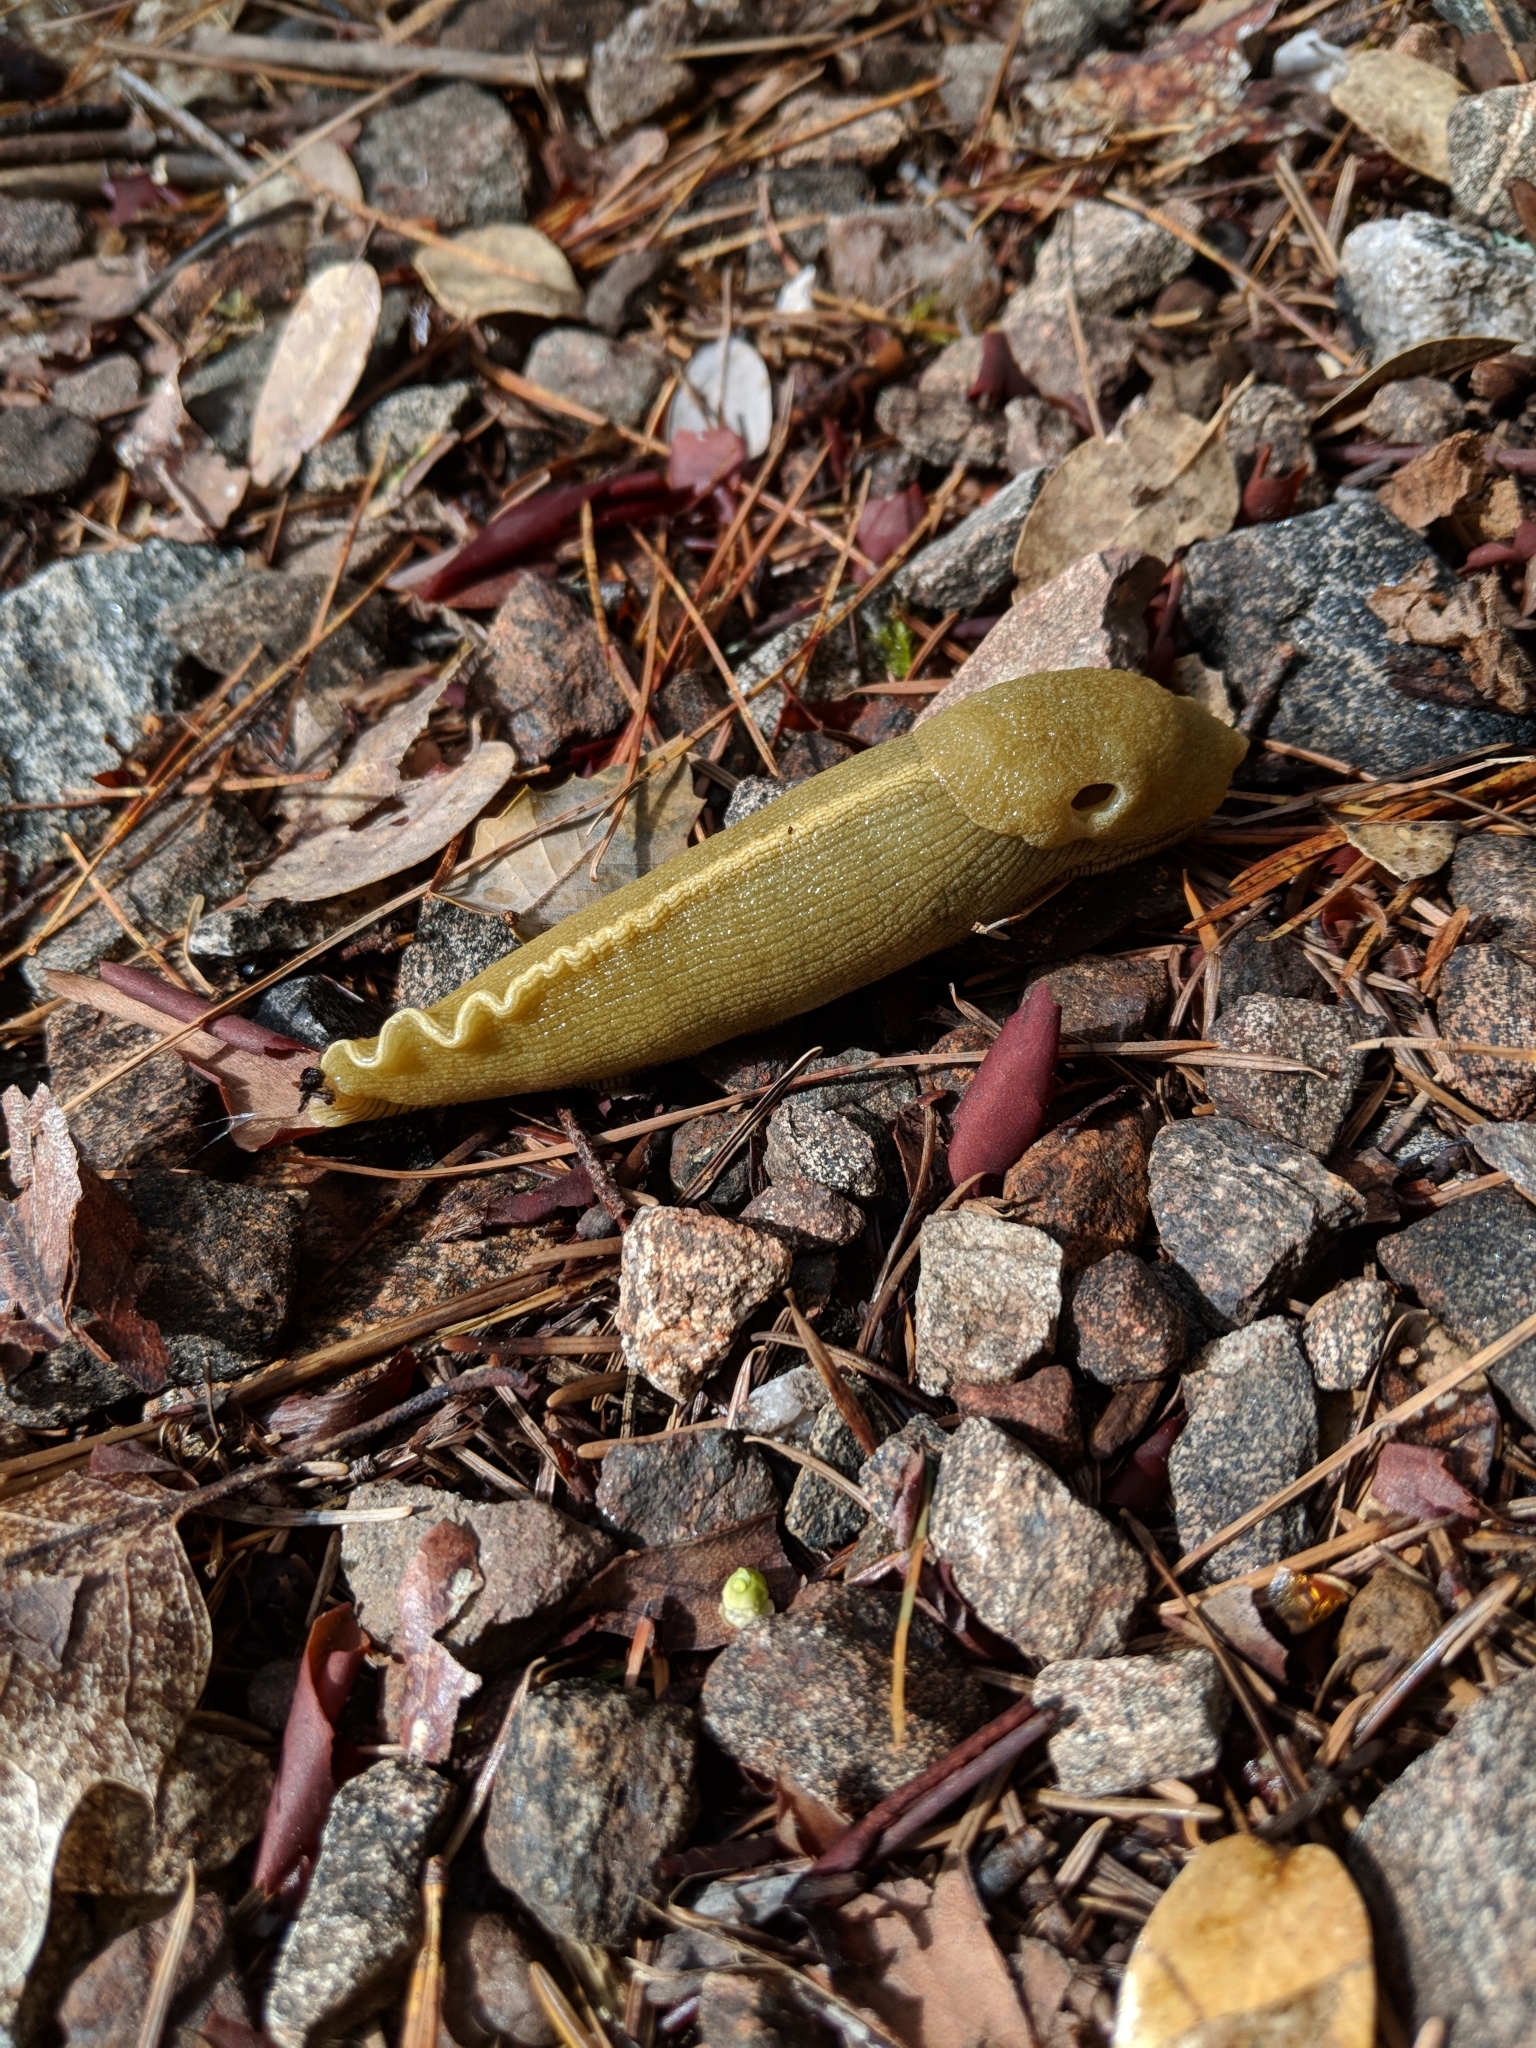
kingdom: Animalia
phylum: Mollusca
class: Gastropoda
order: Stylommatophora
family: Ariolimacidae
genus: Ariolimax
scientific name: Ariolimax columbianus
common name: Pacific banana slug
